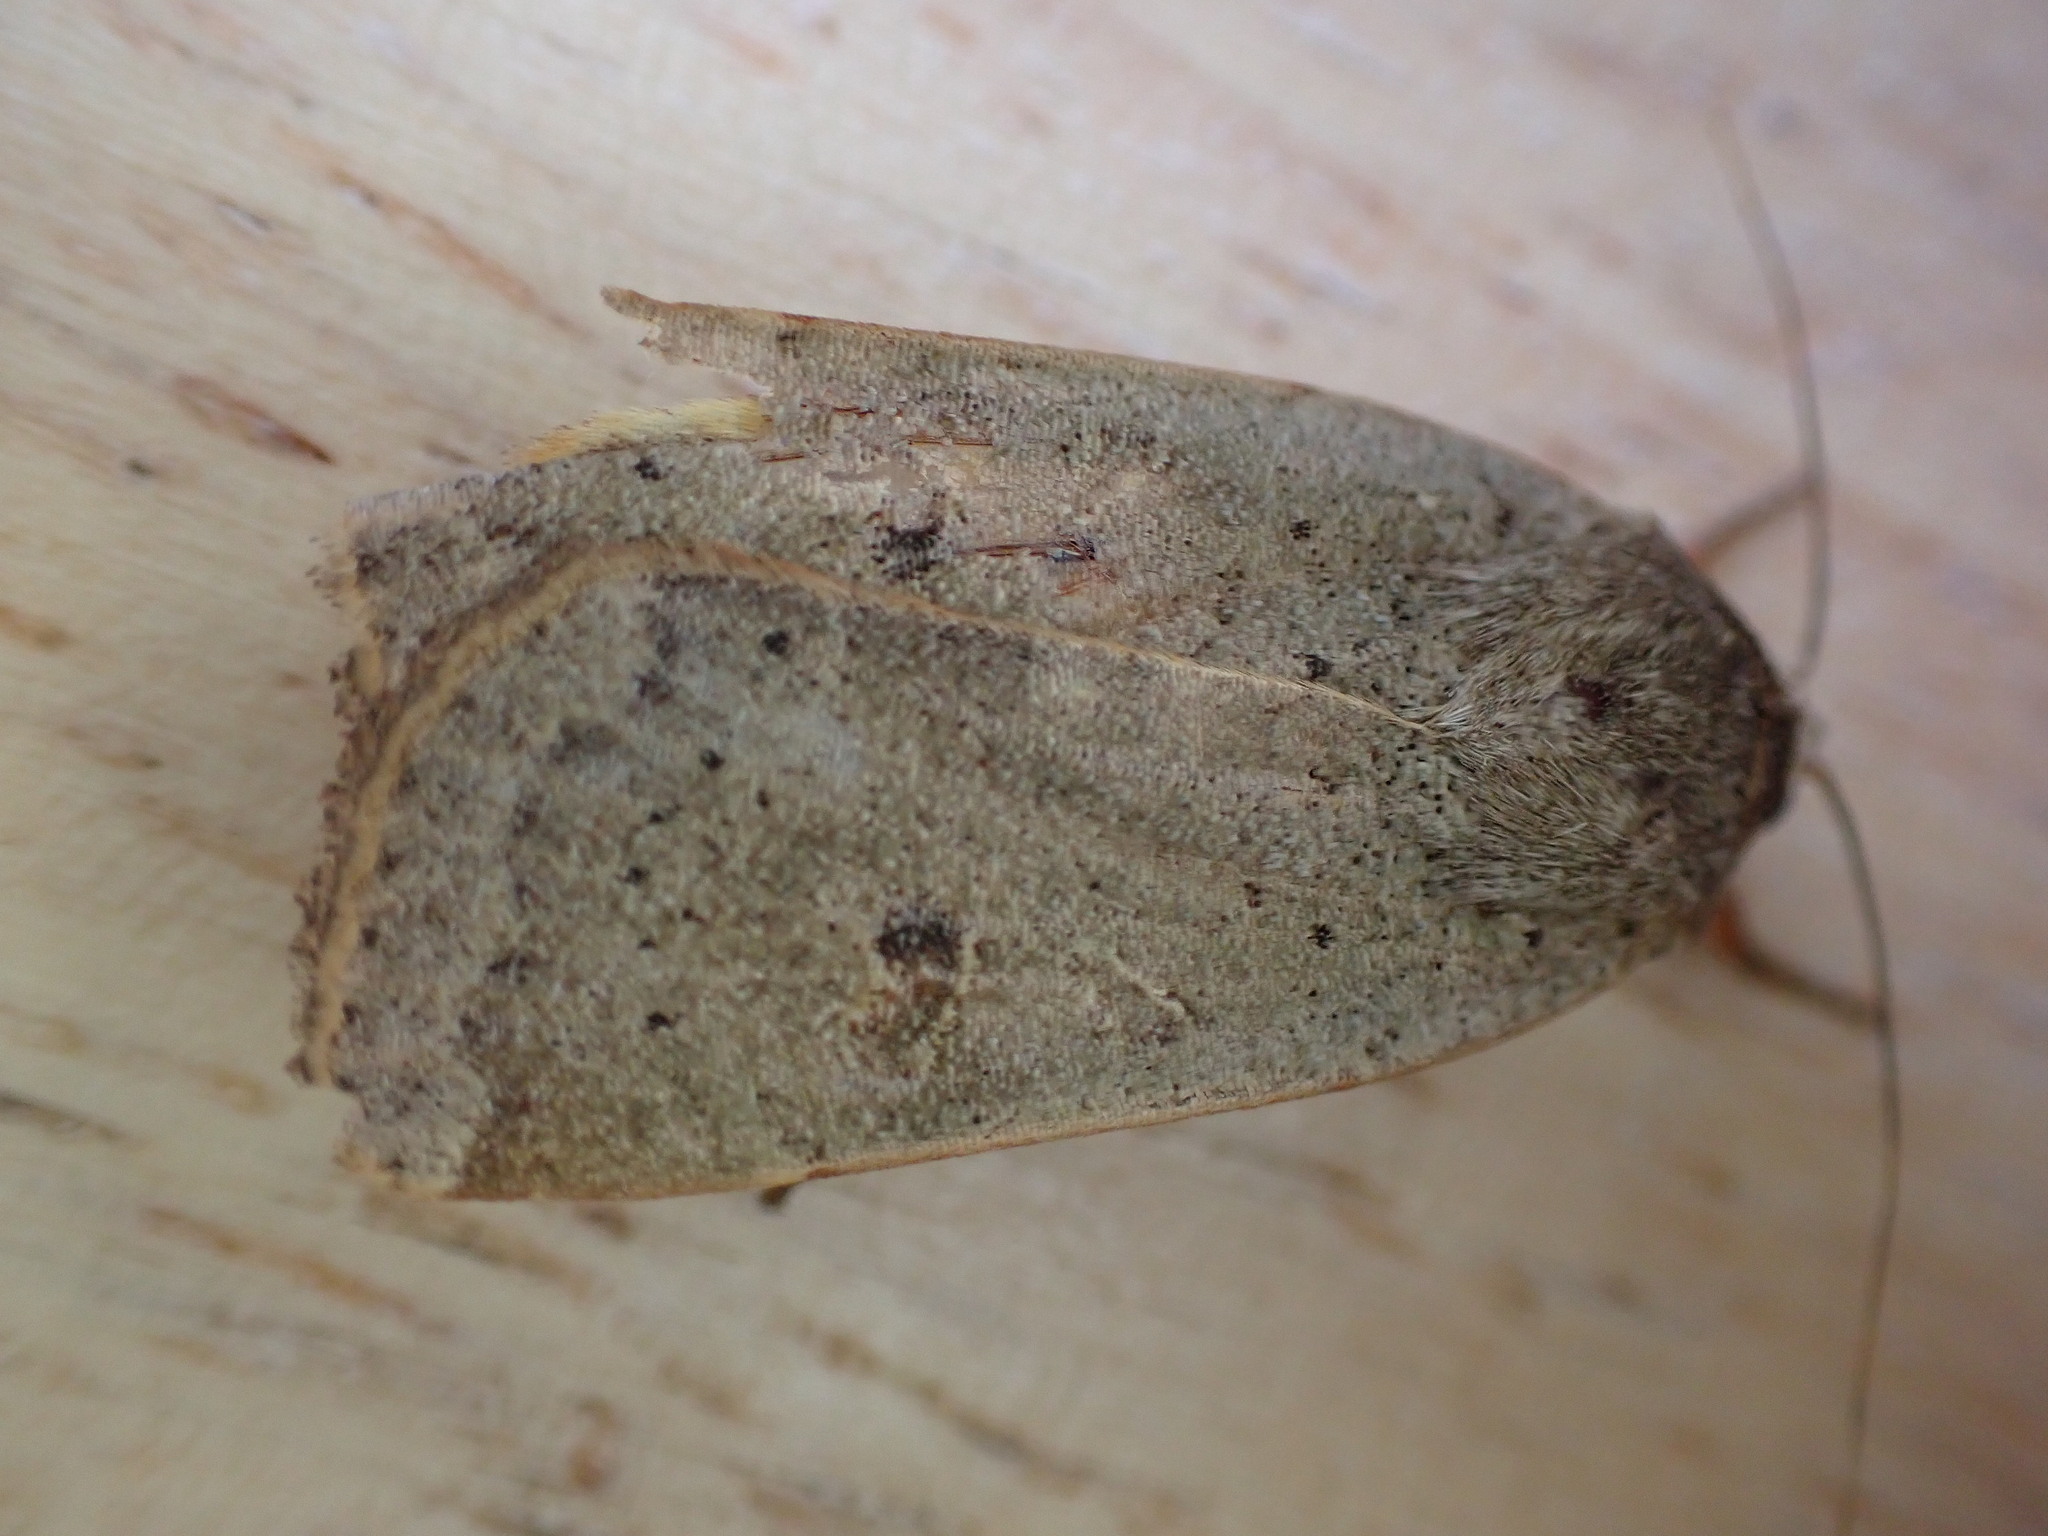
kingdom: Animalia
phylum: Arthropoda
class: Insecta
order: Lepidoptera
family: Noctuidae
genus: Noctua
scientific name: Noctua comes
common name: Lesser yellow underwing
